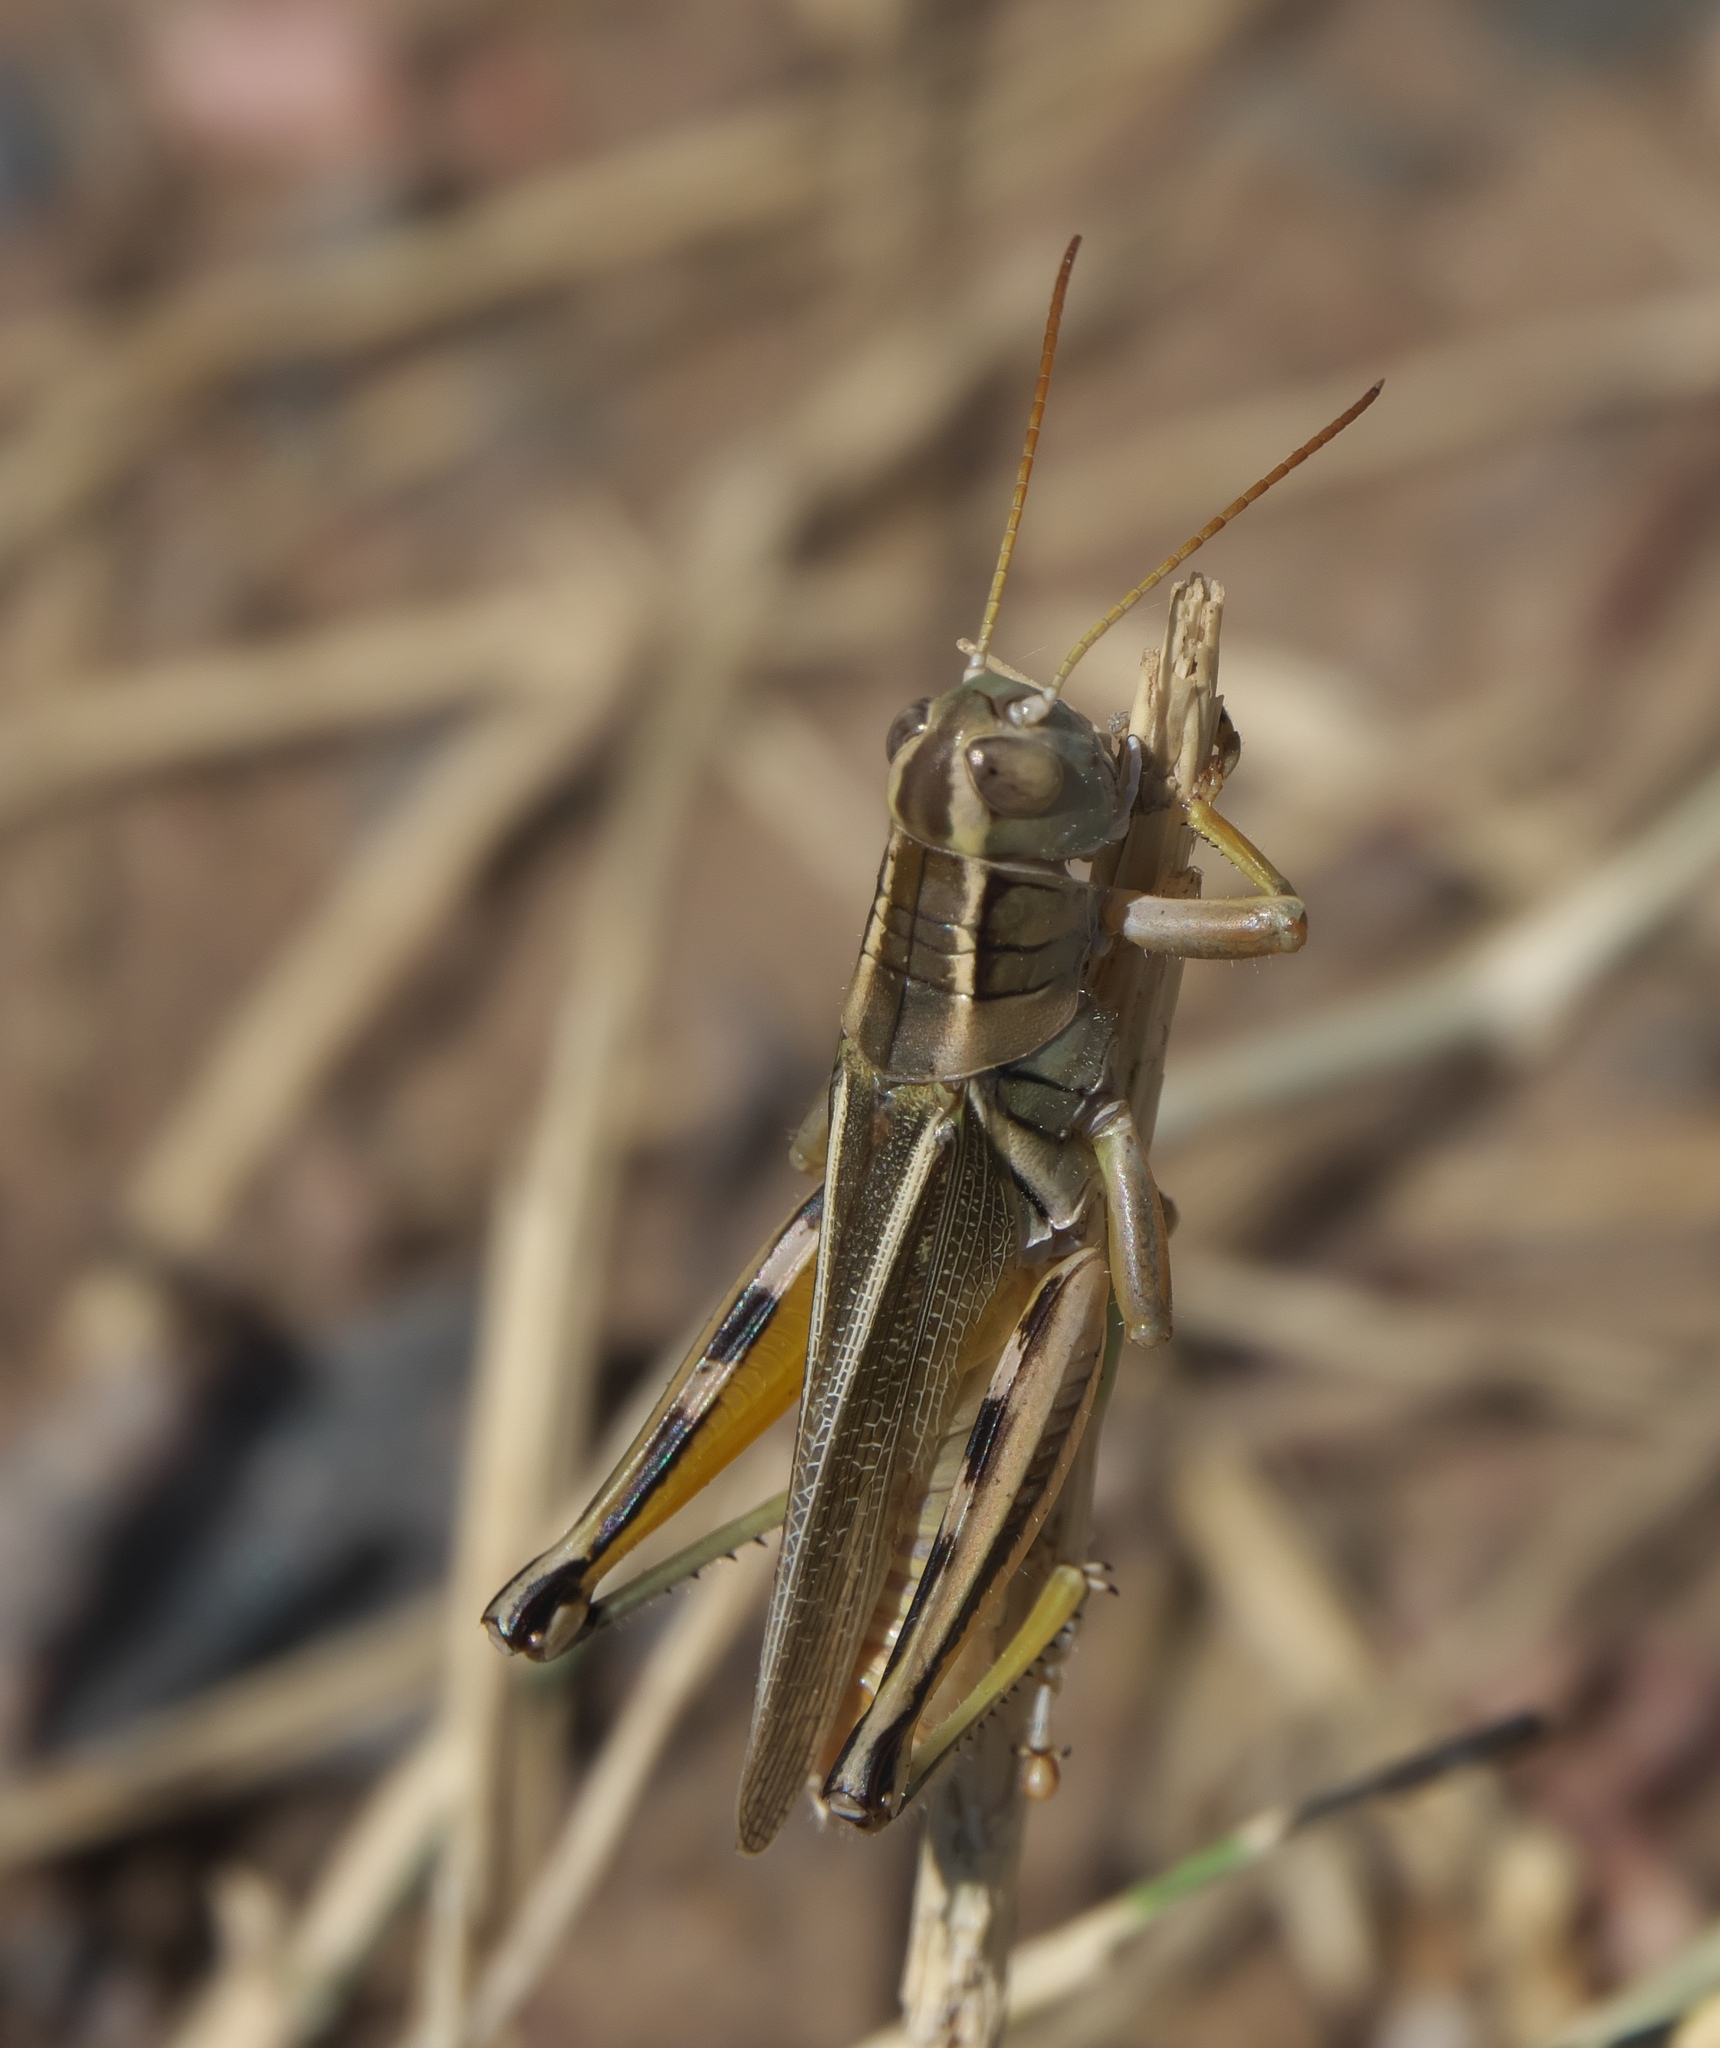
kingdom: Animalia
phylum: Arthropoda
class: Insecta
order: Orthoptera
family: Acrididae
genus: Melanoplus
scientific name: Melanoplus bivittatus
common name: Two-striped grasshopper
